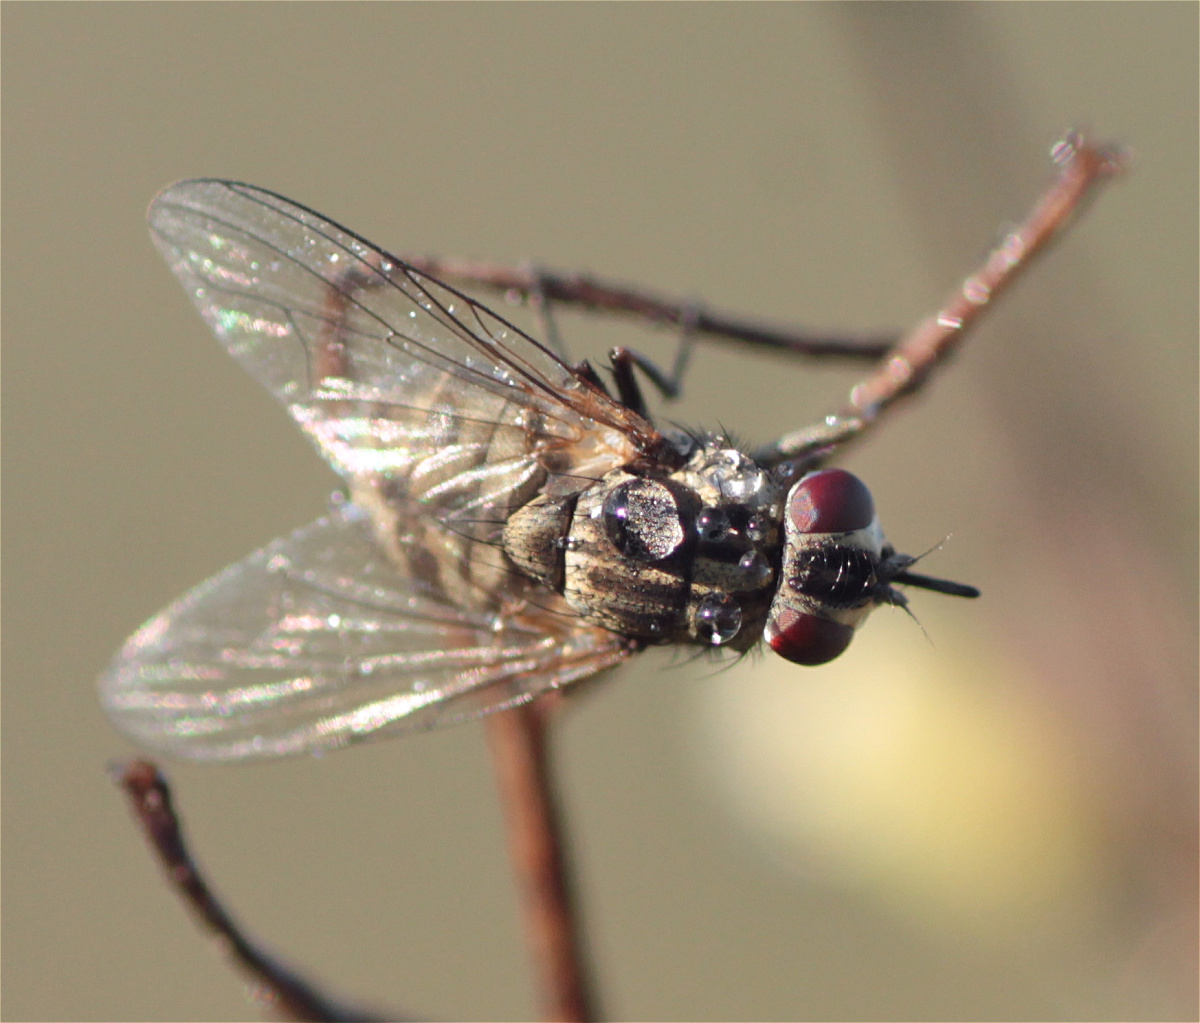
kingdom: Animalia
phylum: Arthropoda
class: Insecta
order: Diptera
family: Muscidae
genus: Stomoxys
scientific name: Stomoxys calcitrans
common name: Stable fly
